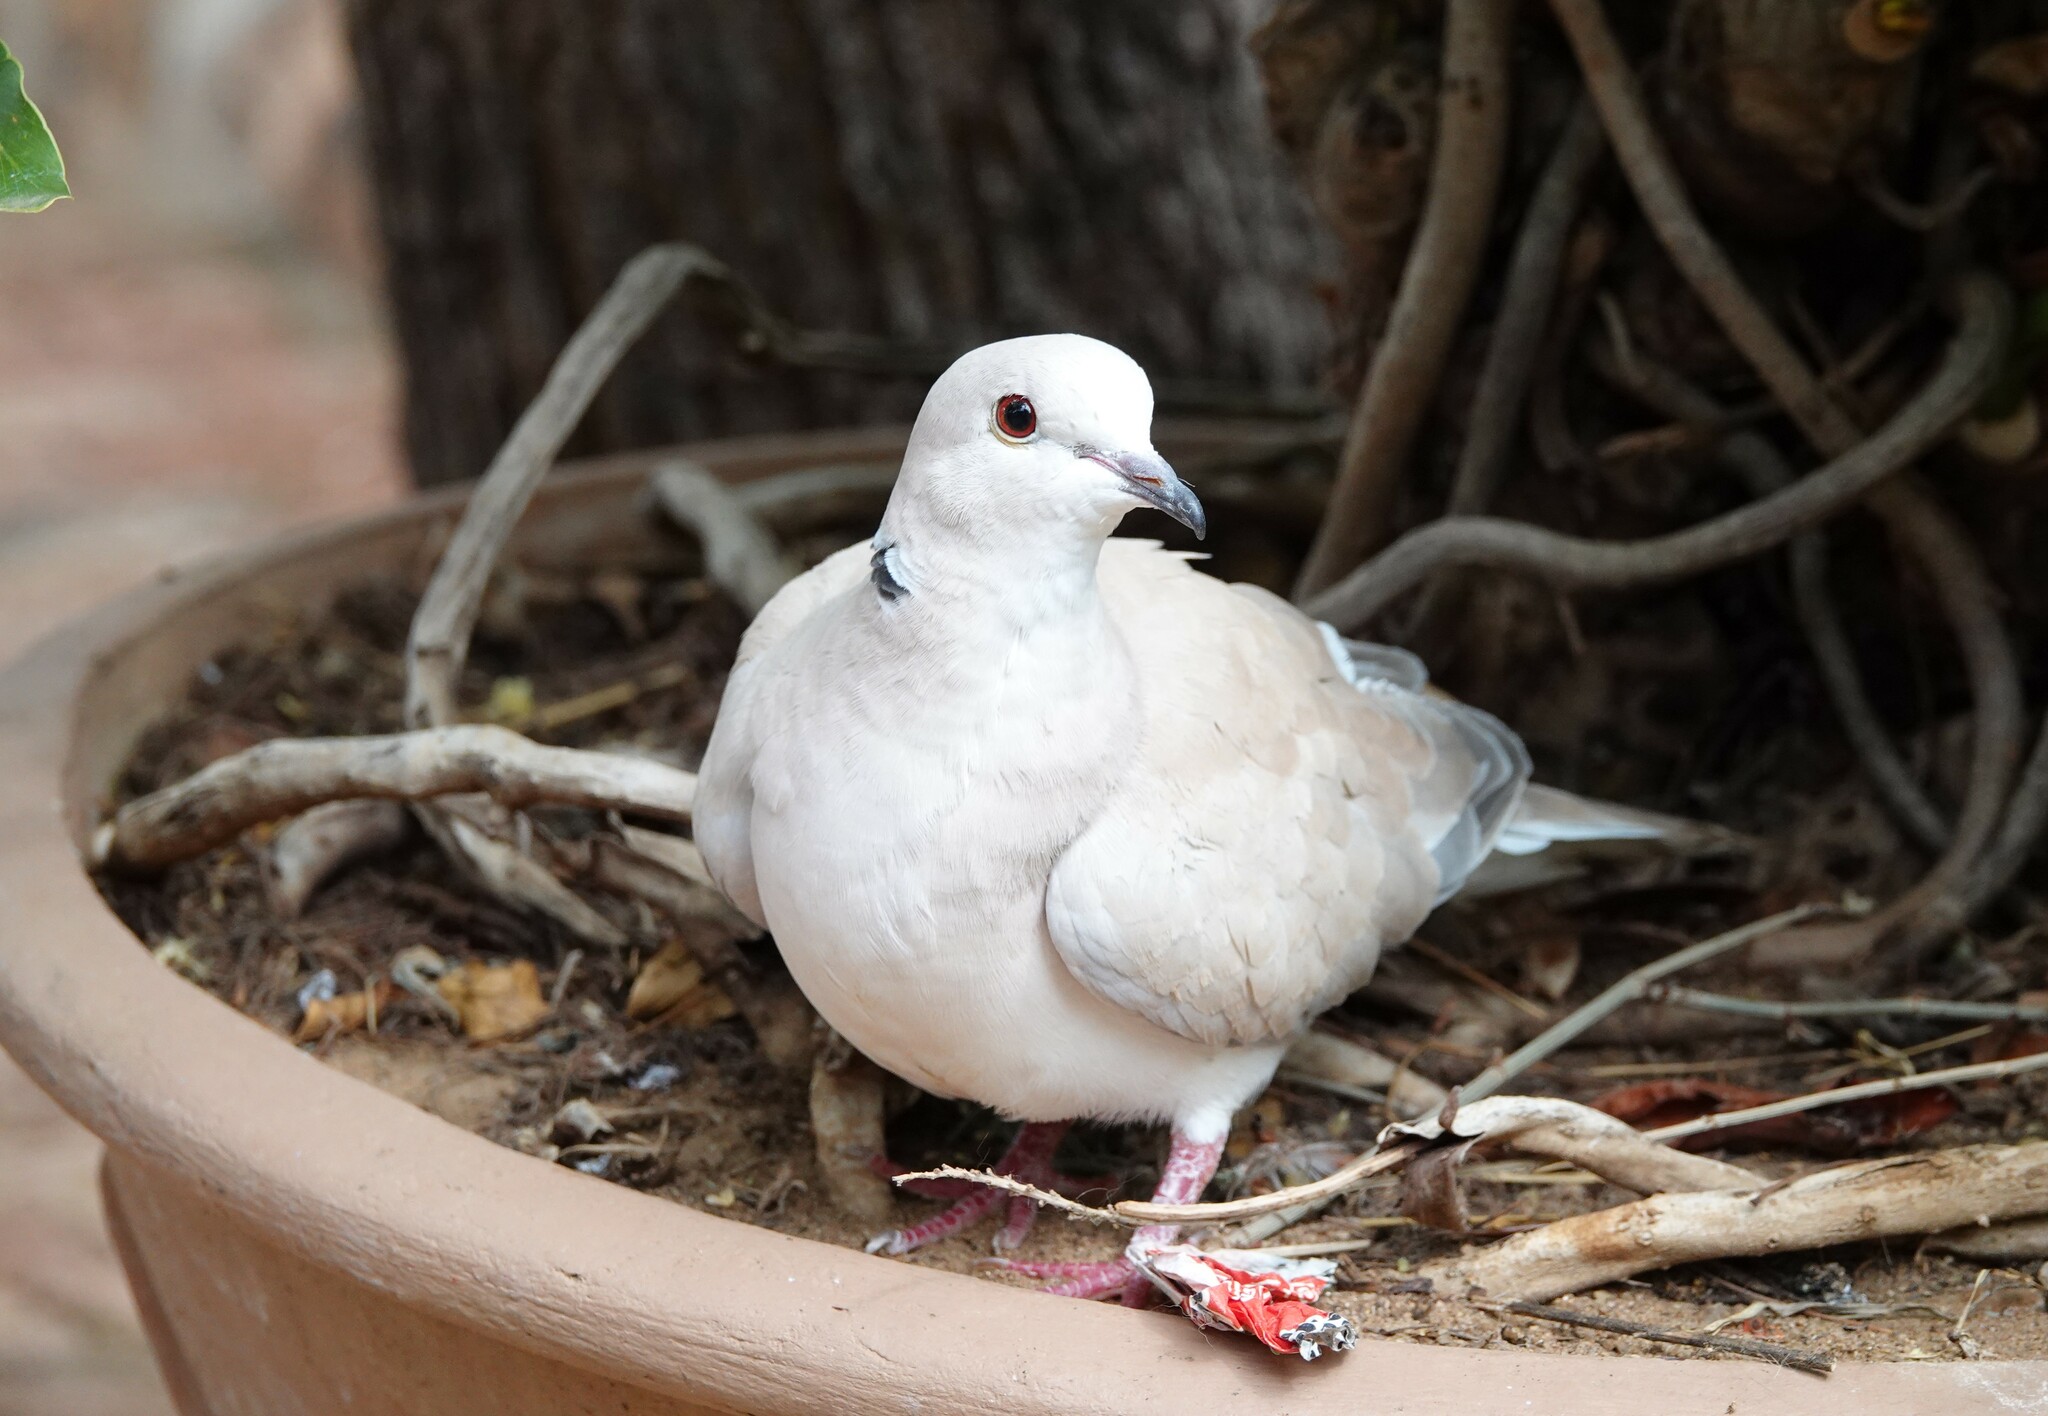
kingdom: Animalia
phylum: Chordata
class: Aves
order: Columbiformes
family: Columbidae
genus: Streptopelia
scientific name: Streptopelia capicola
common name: Ring-necked dove
